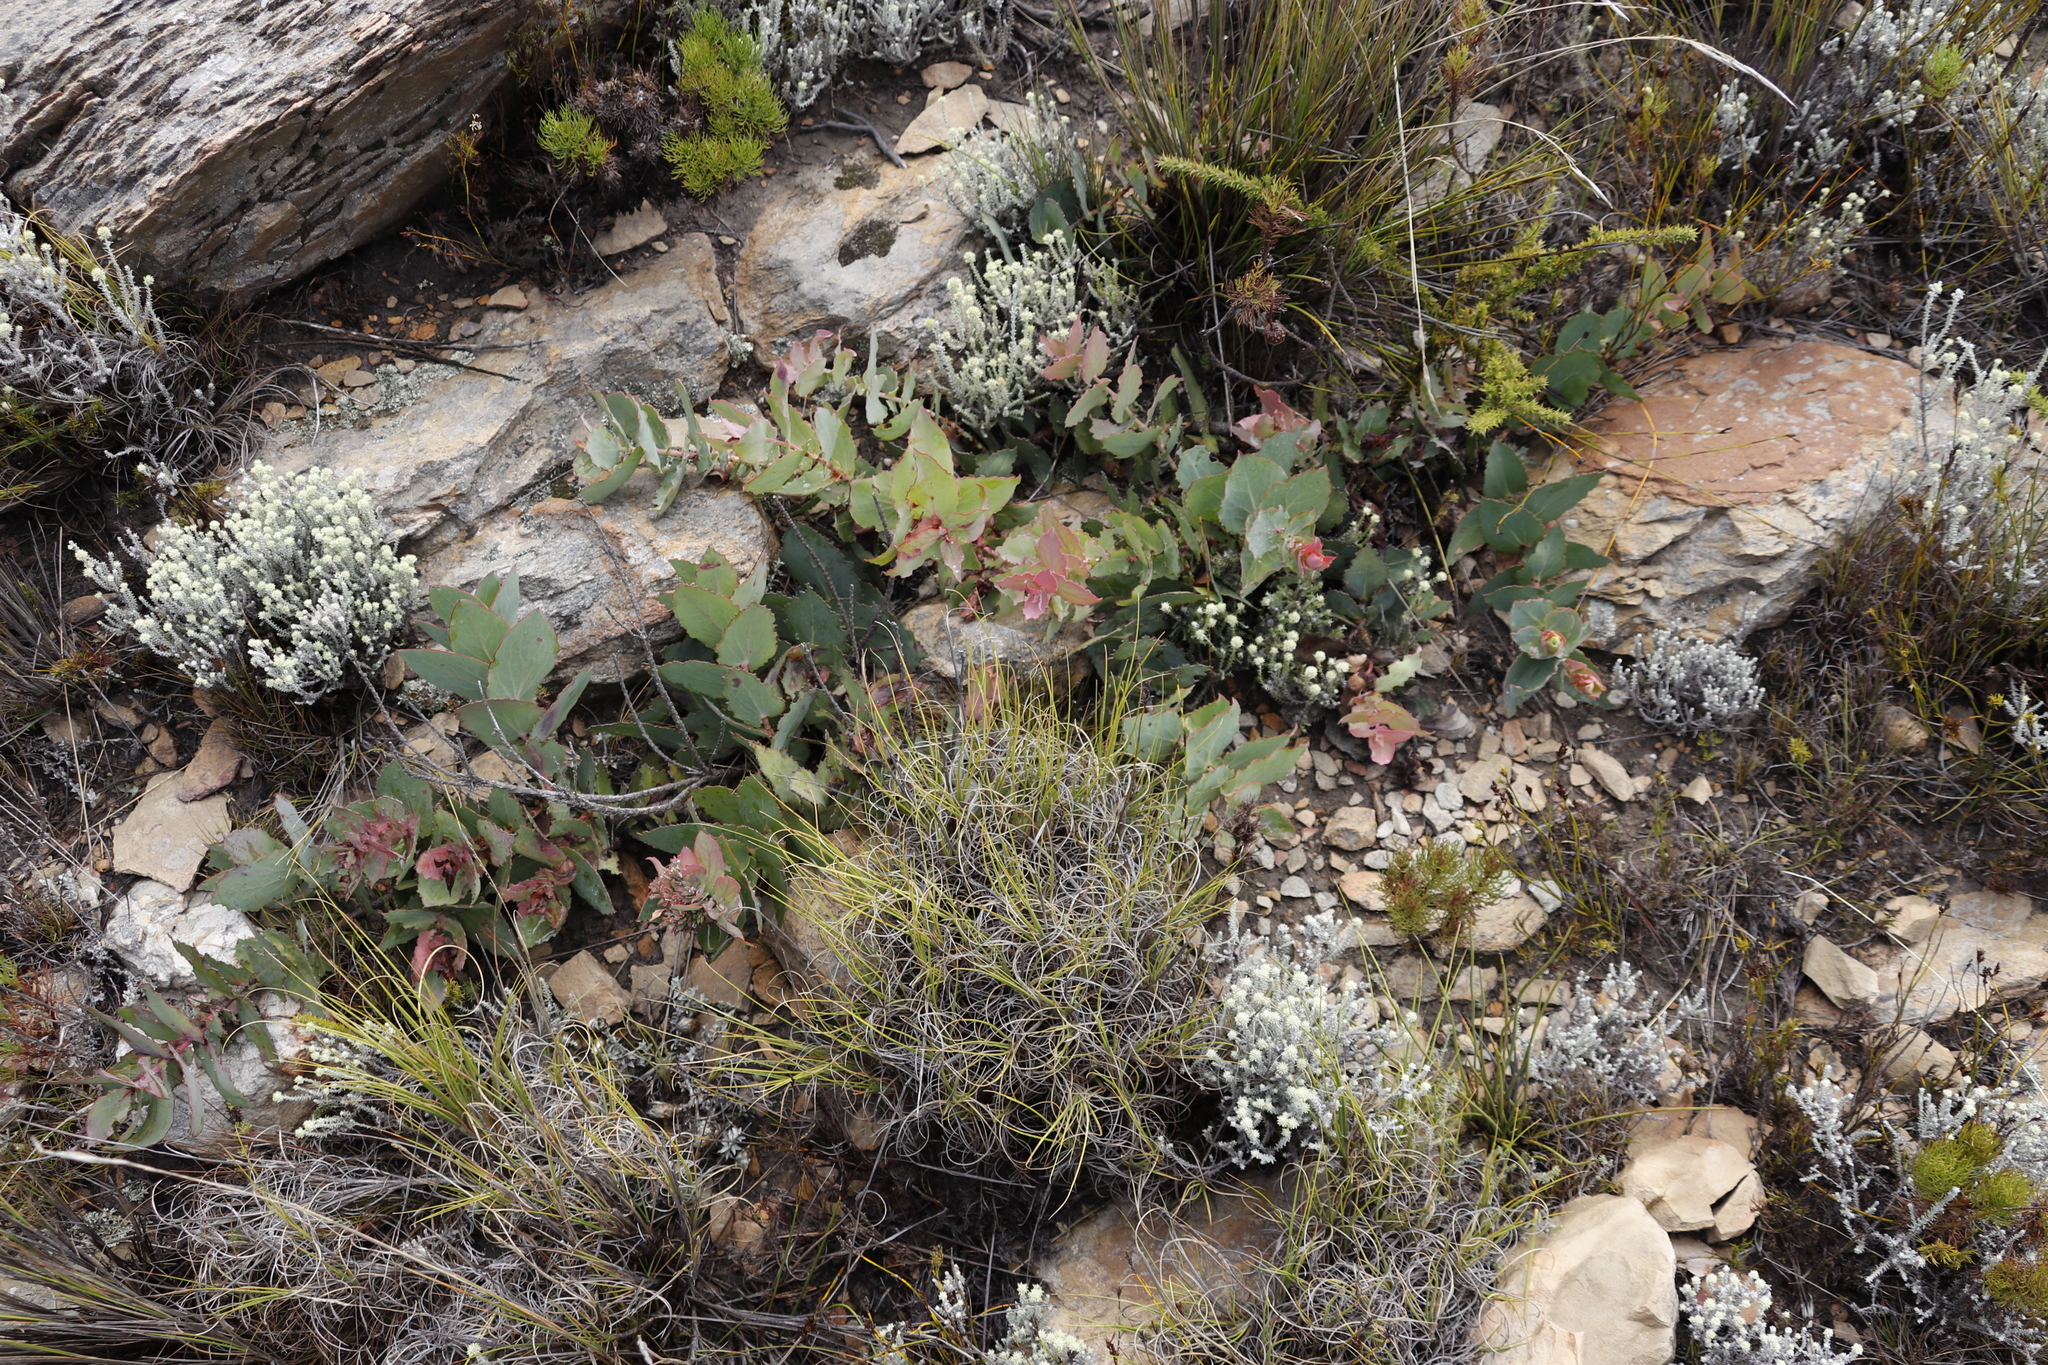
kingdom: Plantae
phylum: Tracheophyta
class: Magnoliopsida
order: Proteales
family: Proteaceae
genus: Protea
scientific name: Protea amplexicaulis
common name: Clasping-leaf sugarbush
